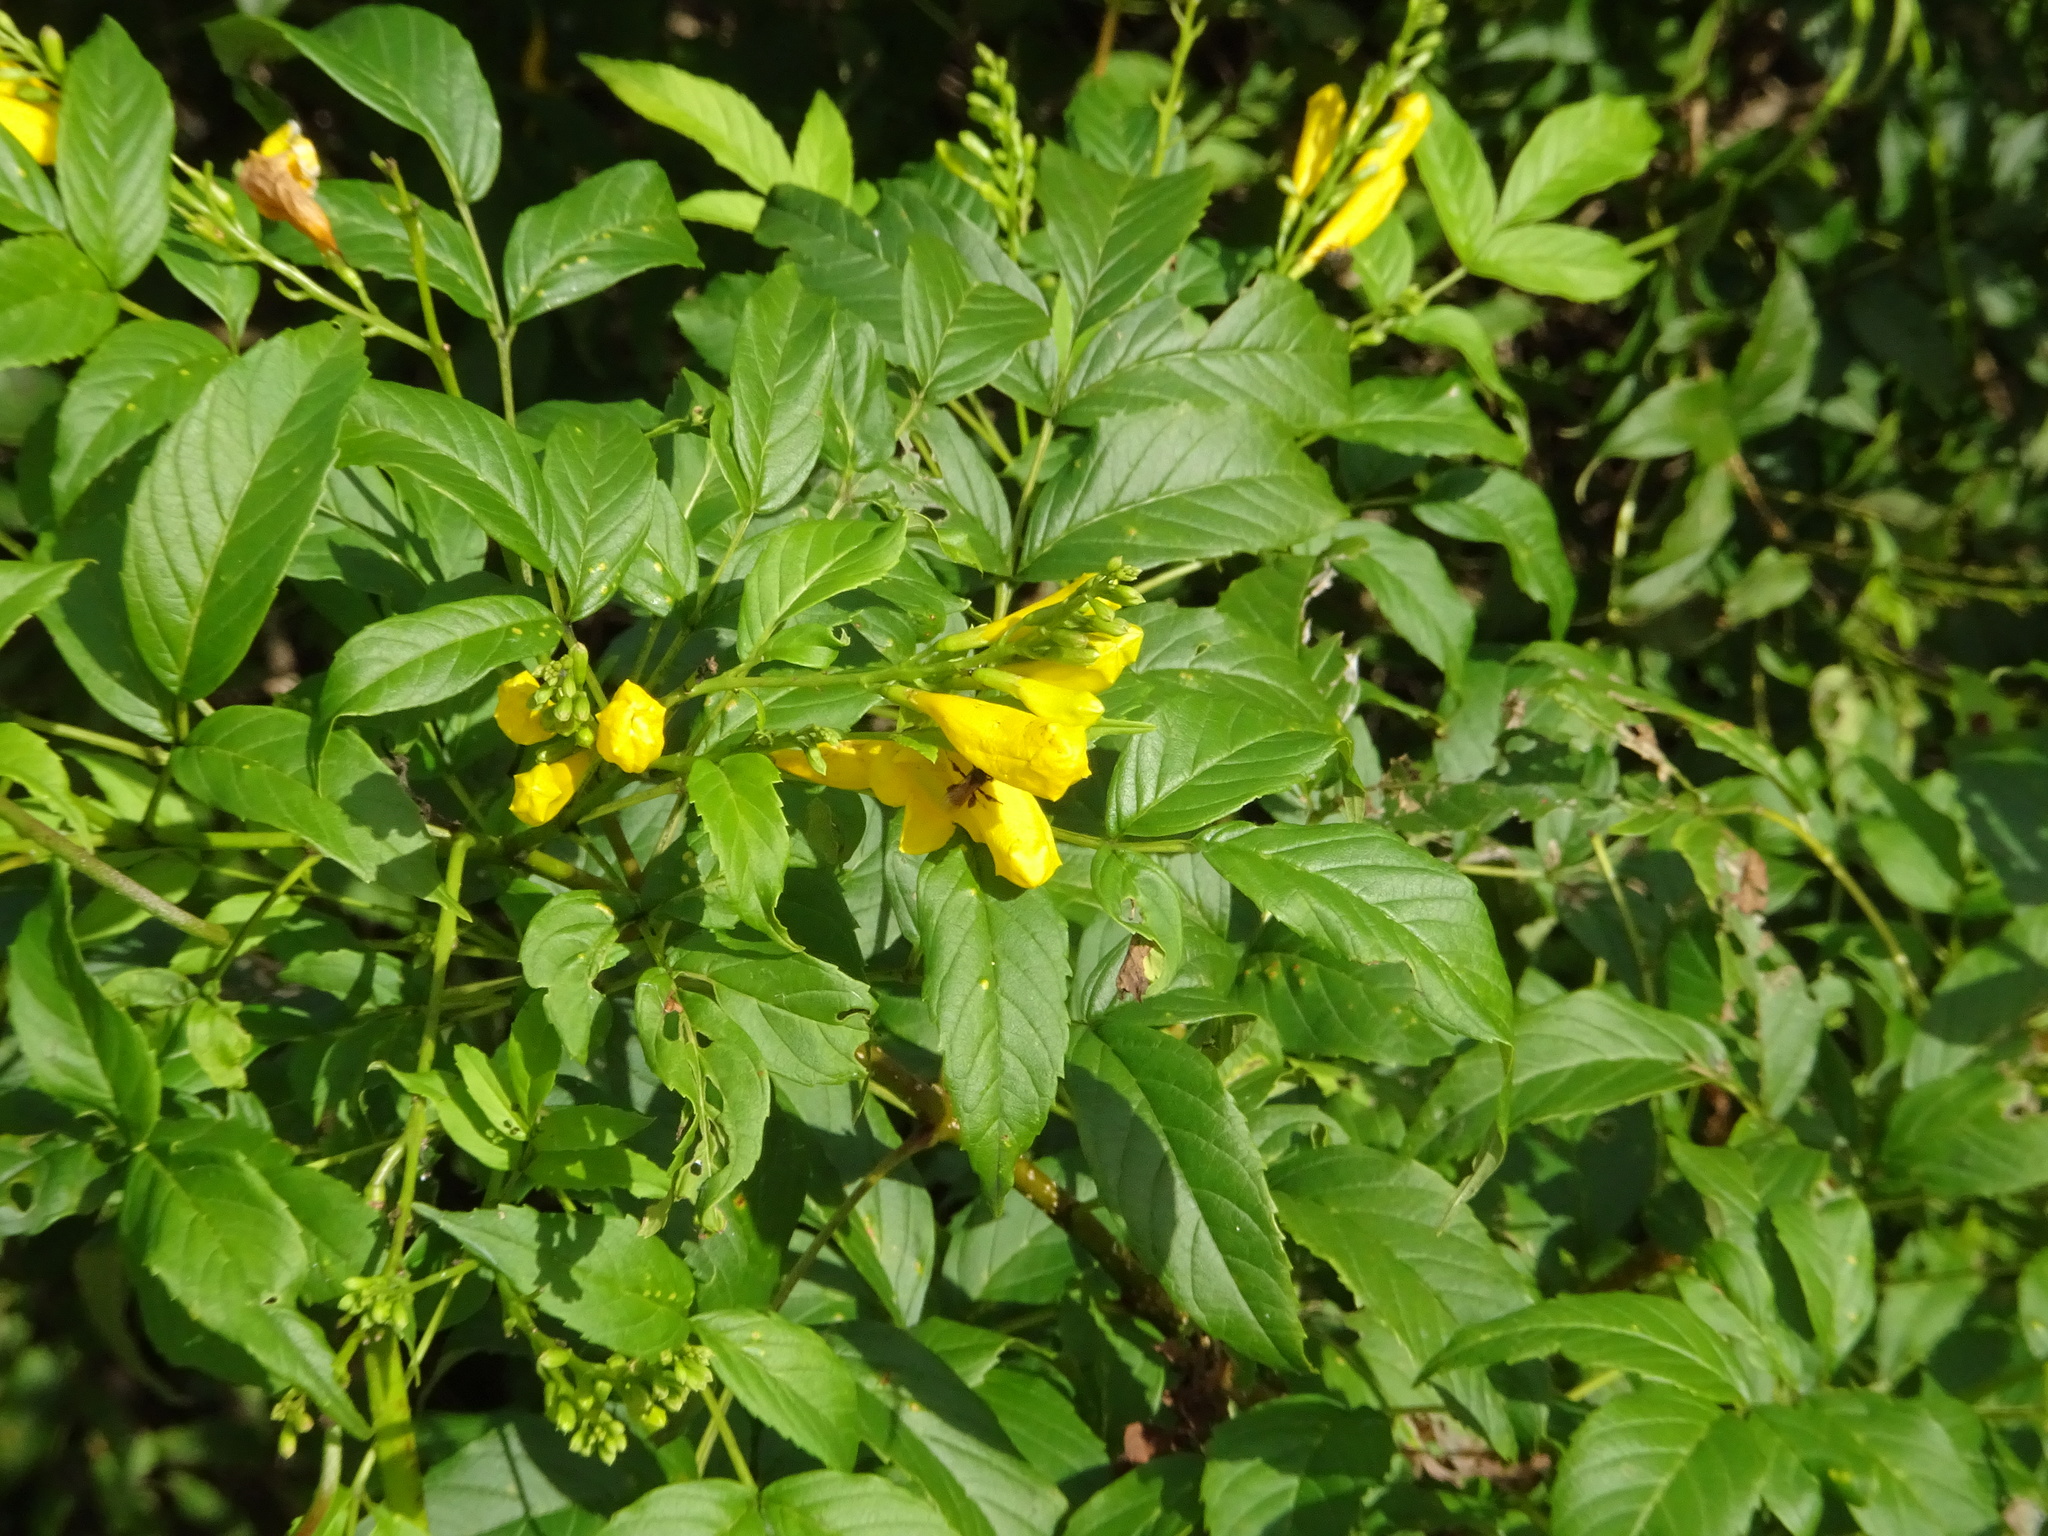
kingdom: Plantae
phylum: Tracheophyta
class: Magnoliopsida
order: Lamiales
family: Bignoniaceae
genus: Tecoma
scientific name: Tecoma stans
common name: Yellow trumpetbush
